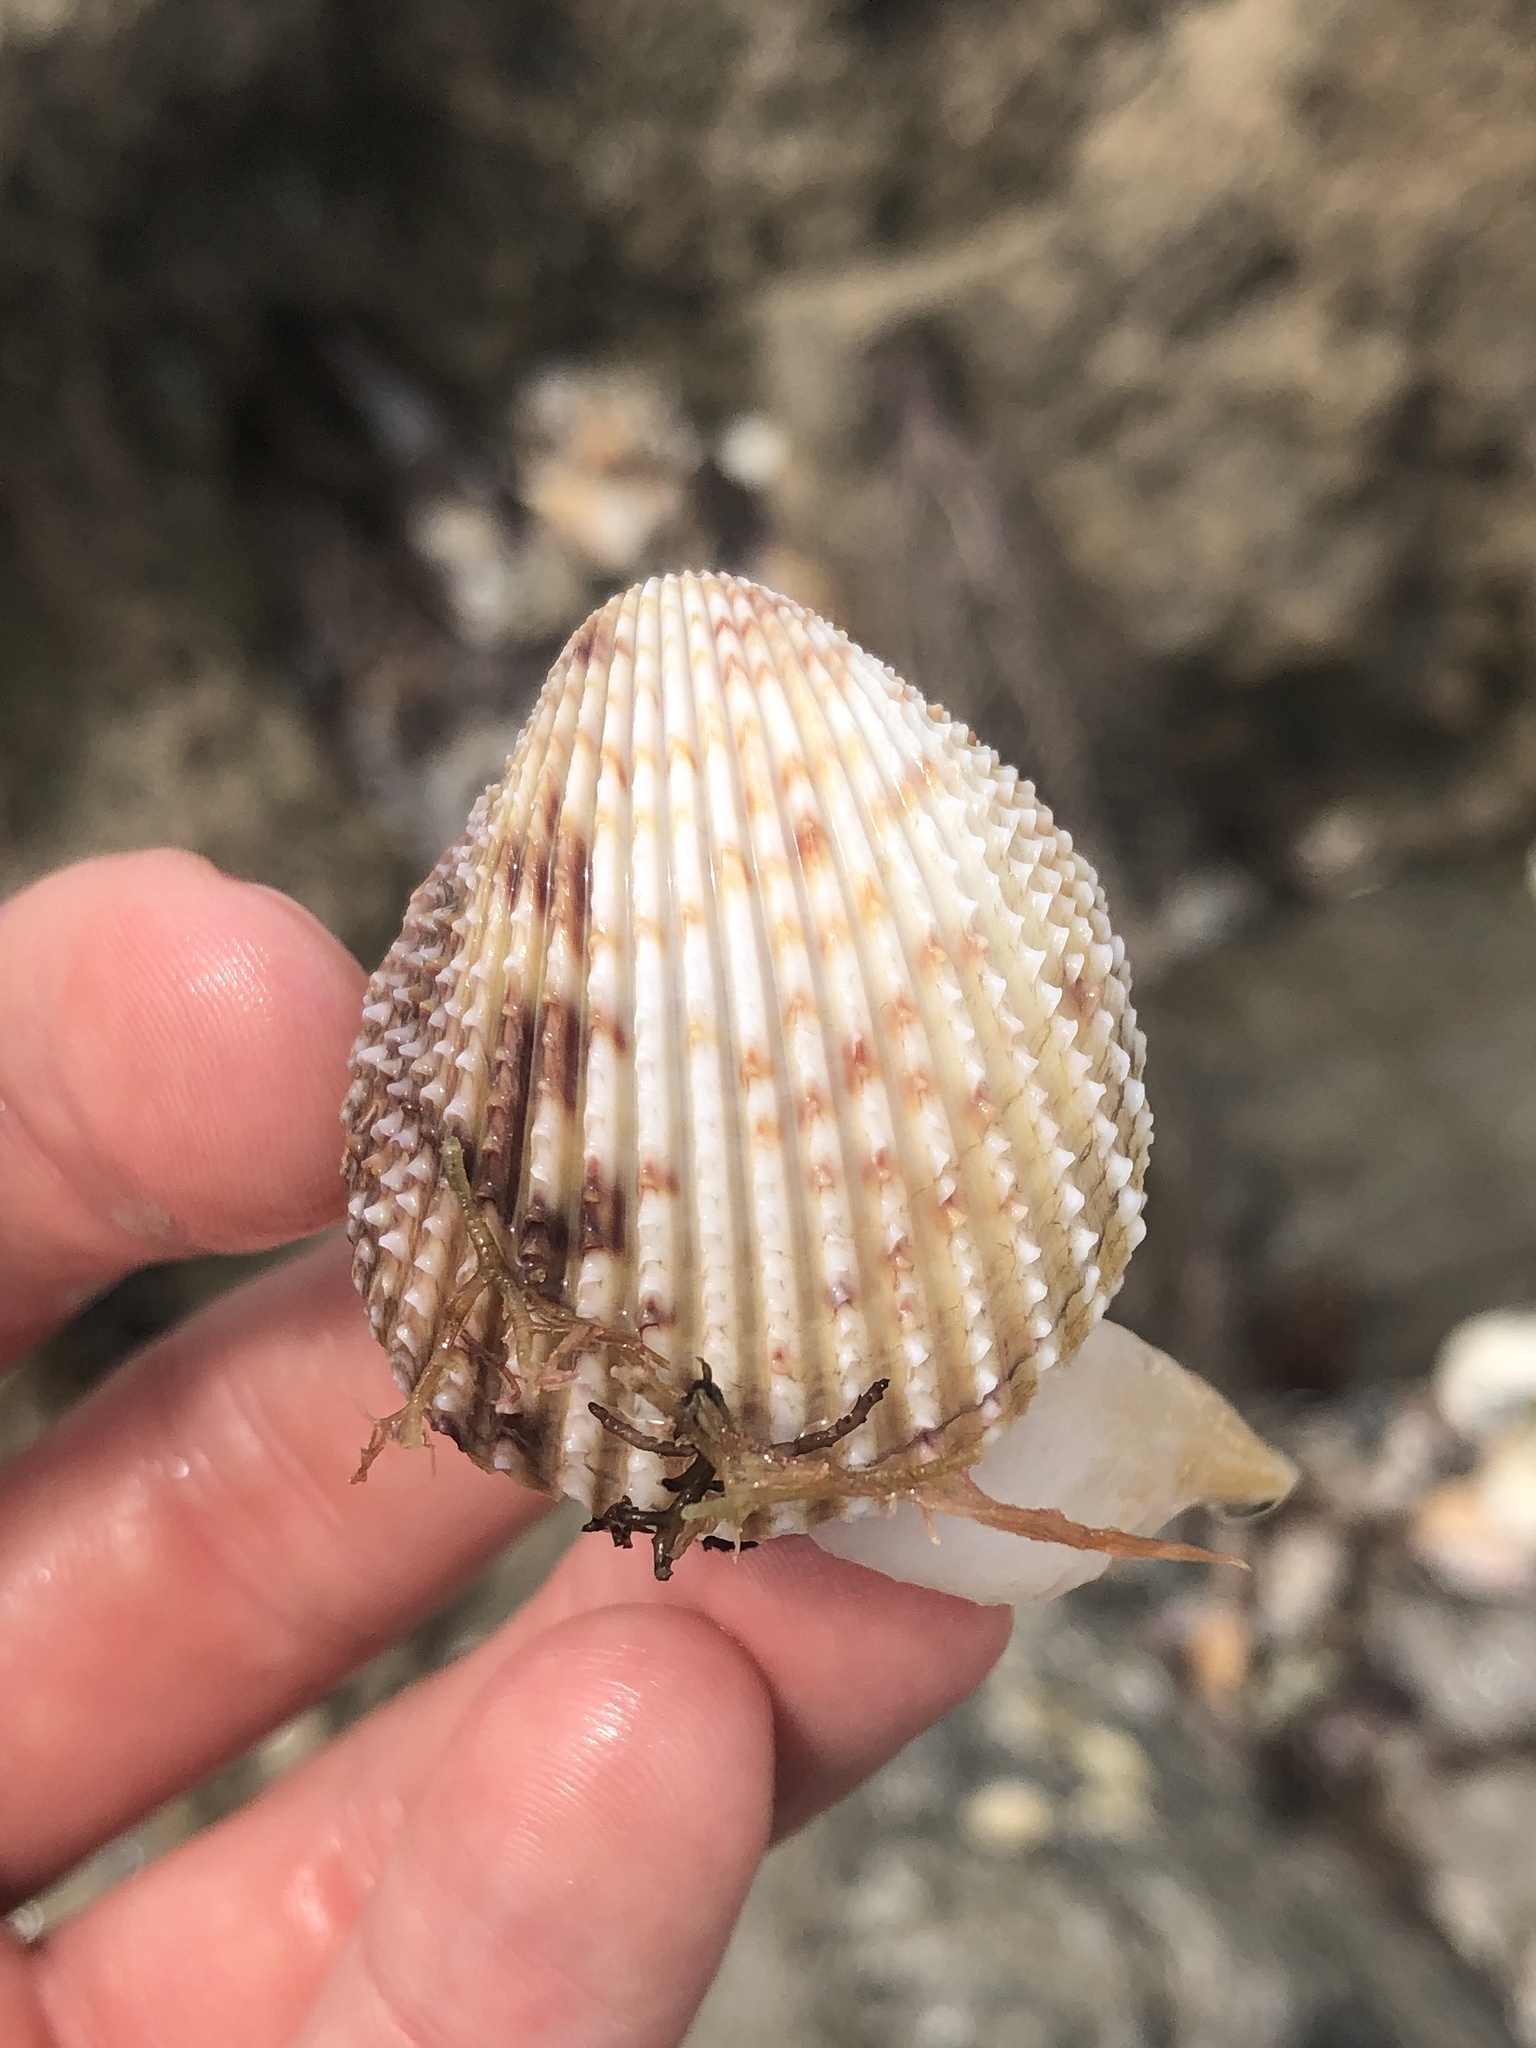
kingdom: Animalia
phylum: Mollusca
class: Bivalvia
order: Cardiida
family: Cardiidae
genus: Trachycardium
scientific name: Trachycardium egmontianum
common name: Florida pricklycockle
